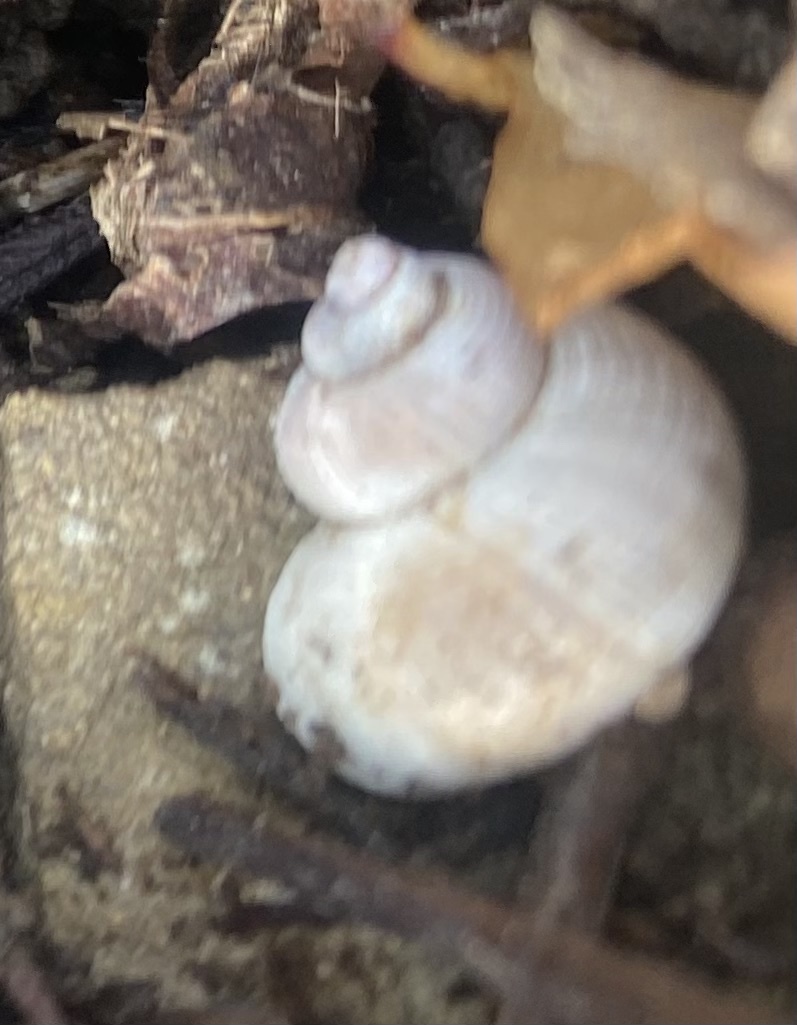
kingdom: Animalia
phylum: Mollusca
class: Gastropoda
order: Littorinimorpha
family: Pomatiidae
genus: Pomatias
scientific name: Pomatias rivularis
